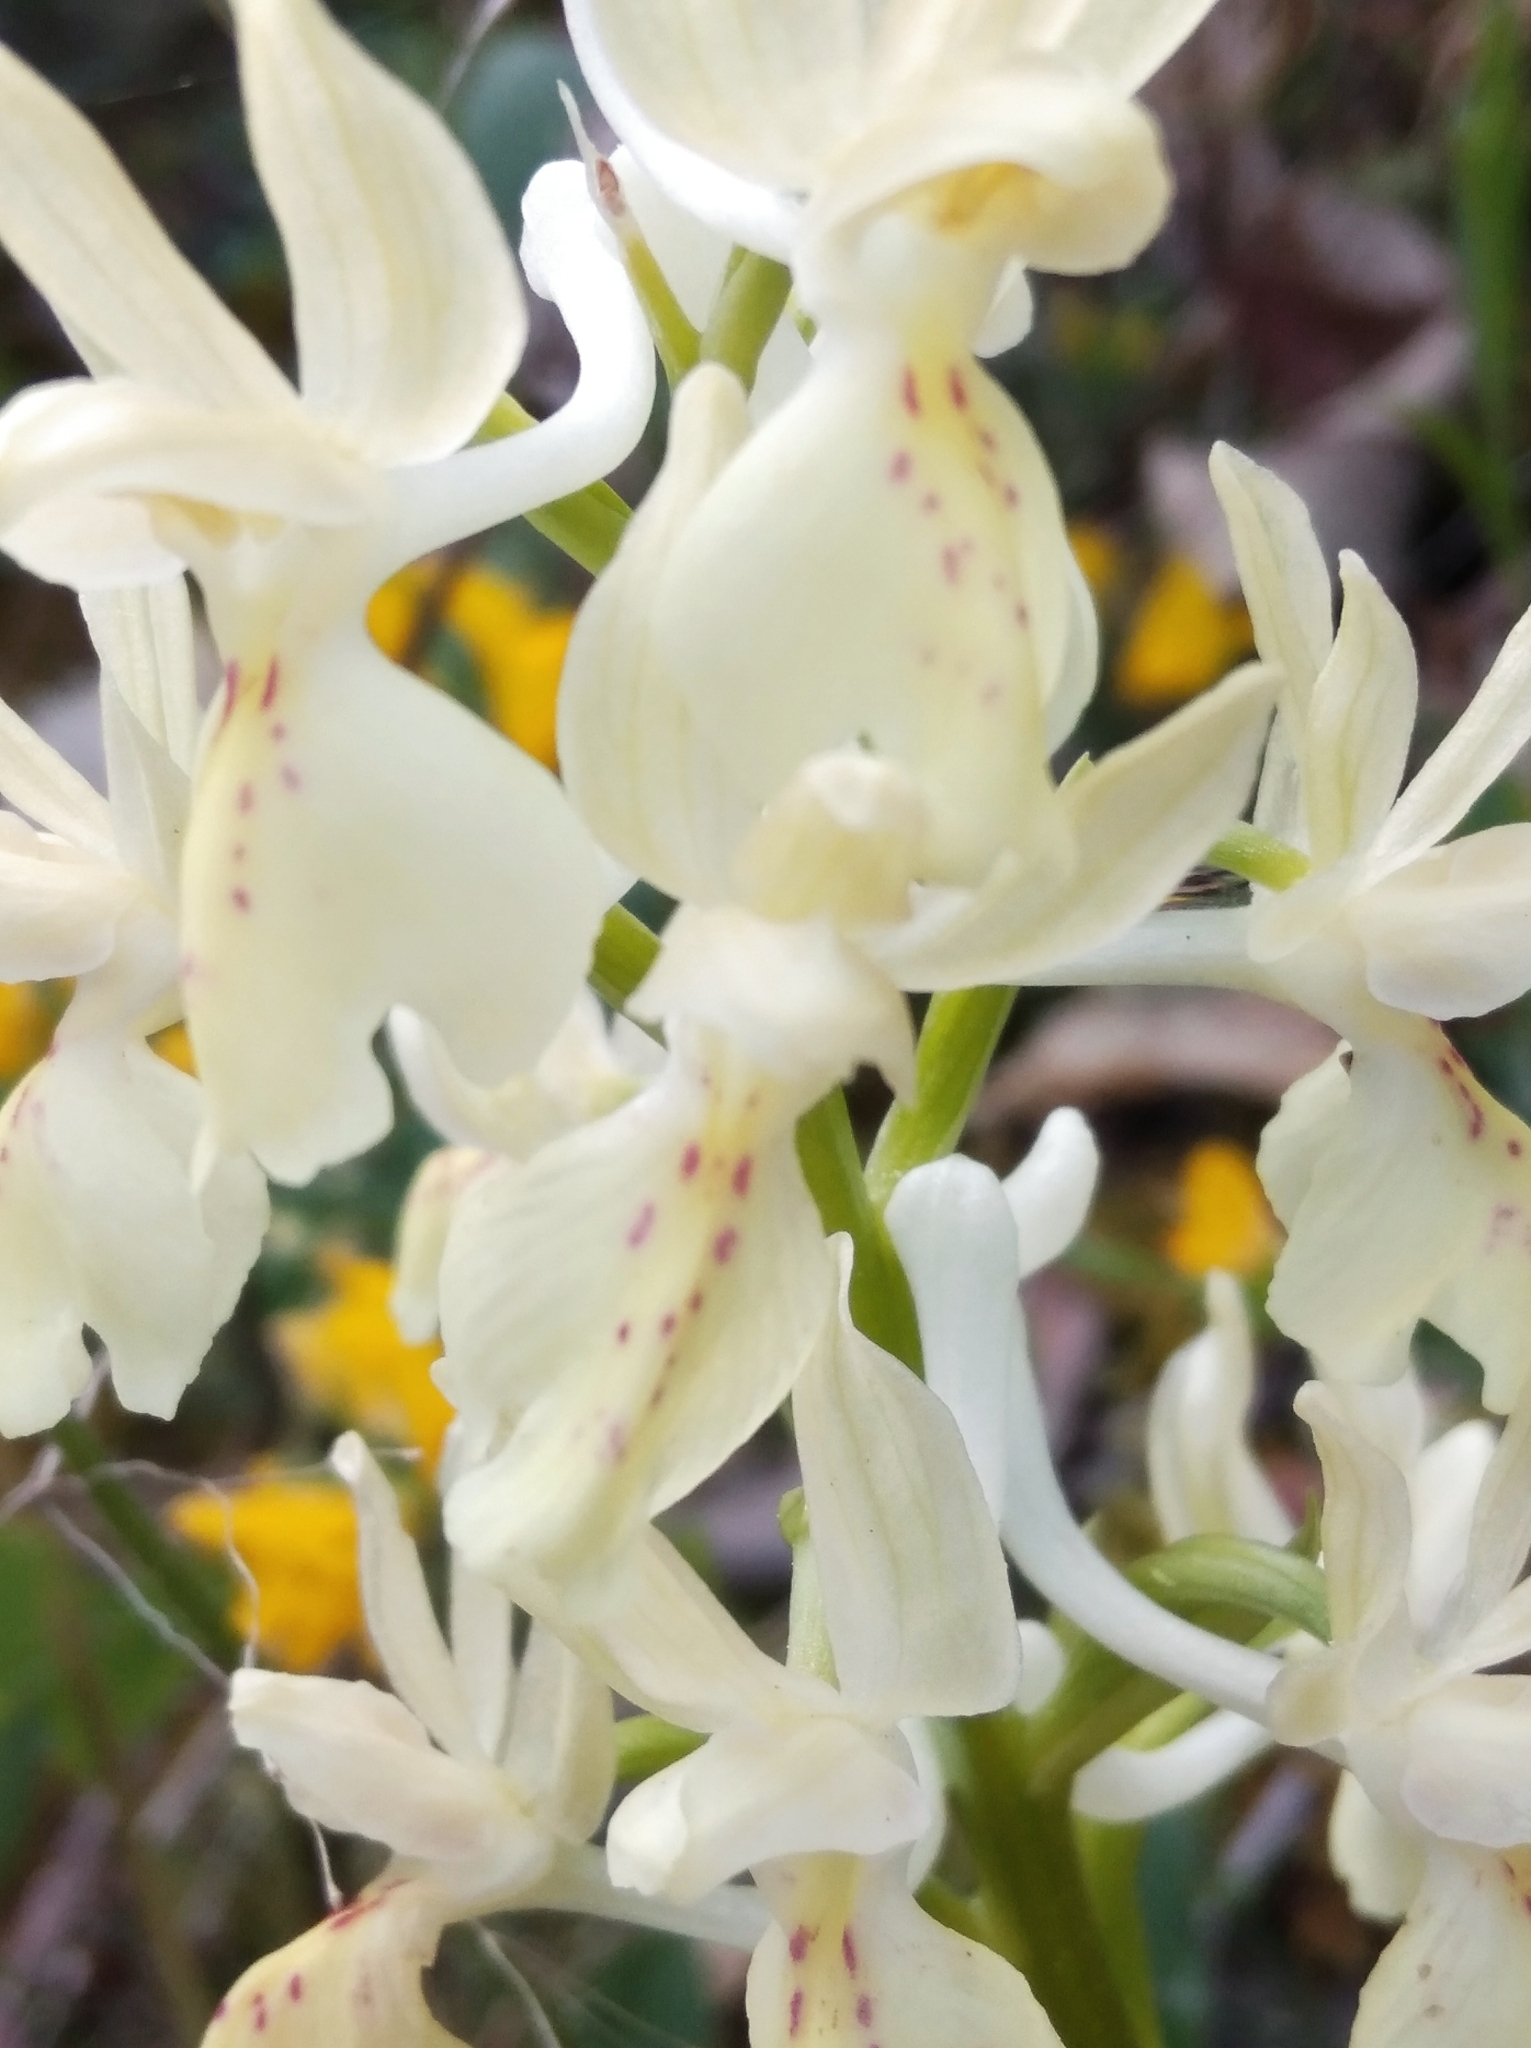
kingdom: Plantae
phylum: Tracheophyta
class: Liliopsida
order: Asparagales
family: Orchidaceae
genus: Orchis
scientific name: Orchis provincialis
